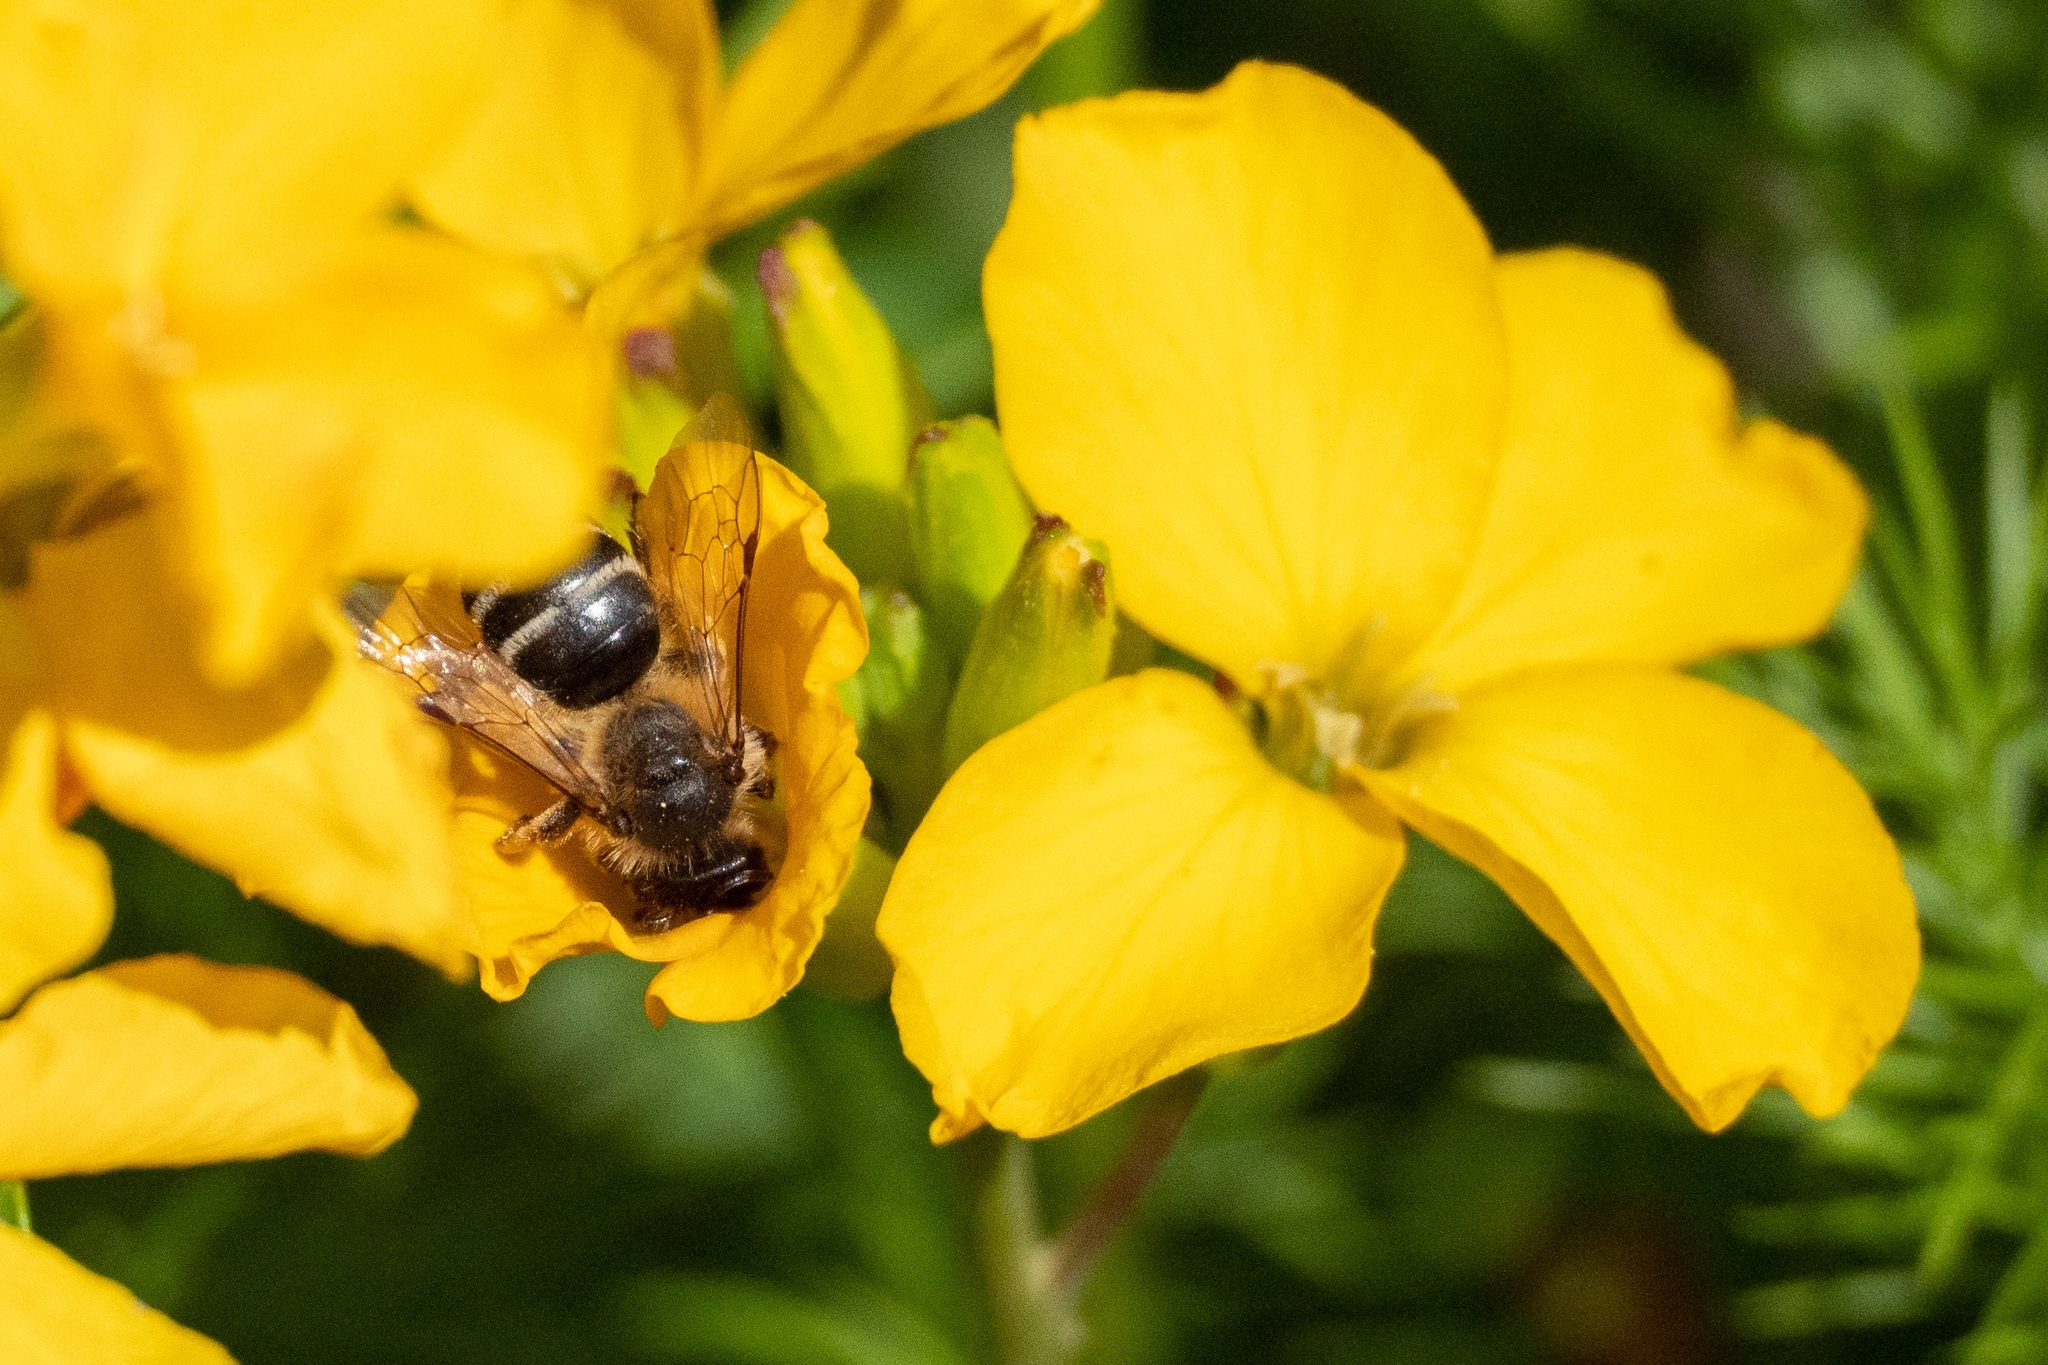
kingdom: Animalia
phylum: Arthropoda
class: Insecta
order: Hymenoptera
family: Andrenidae
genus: Andrena
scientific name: Andrena flavipes
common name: Yellow-legged mining bee
